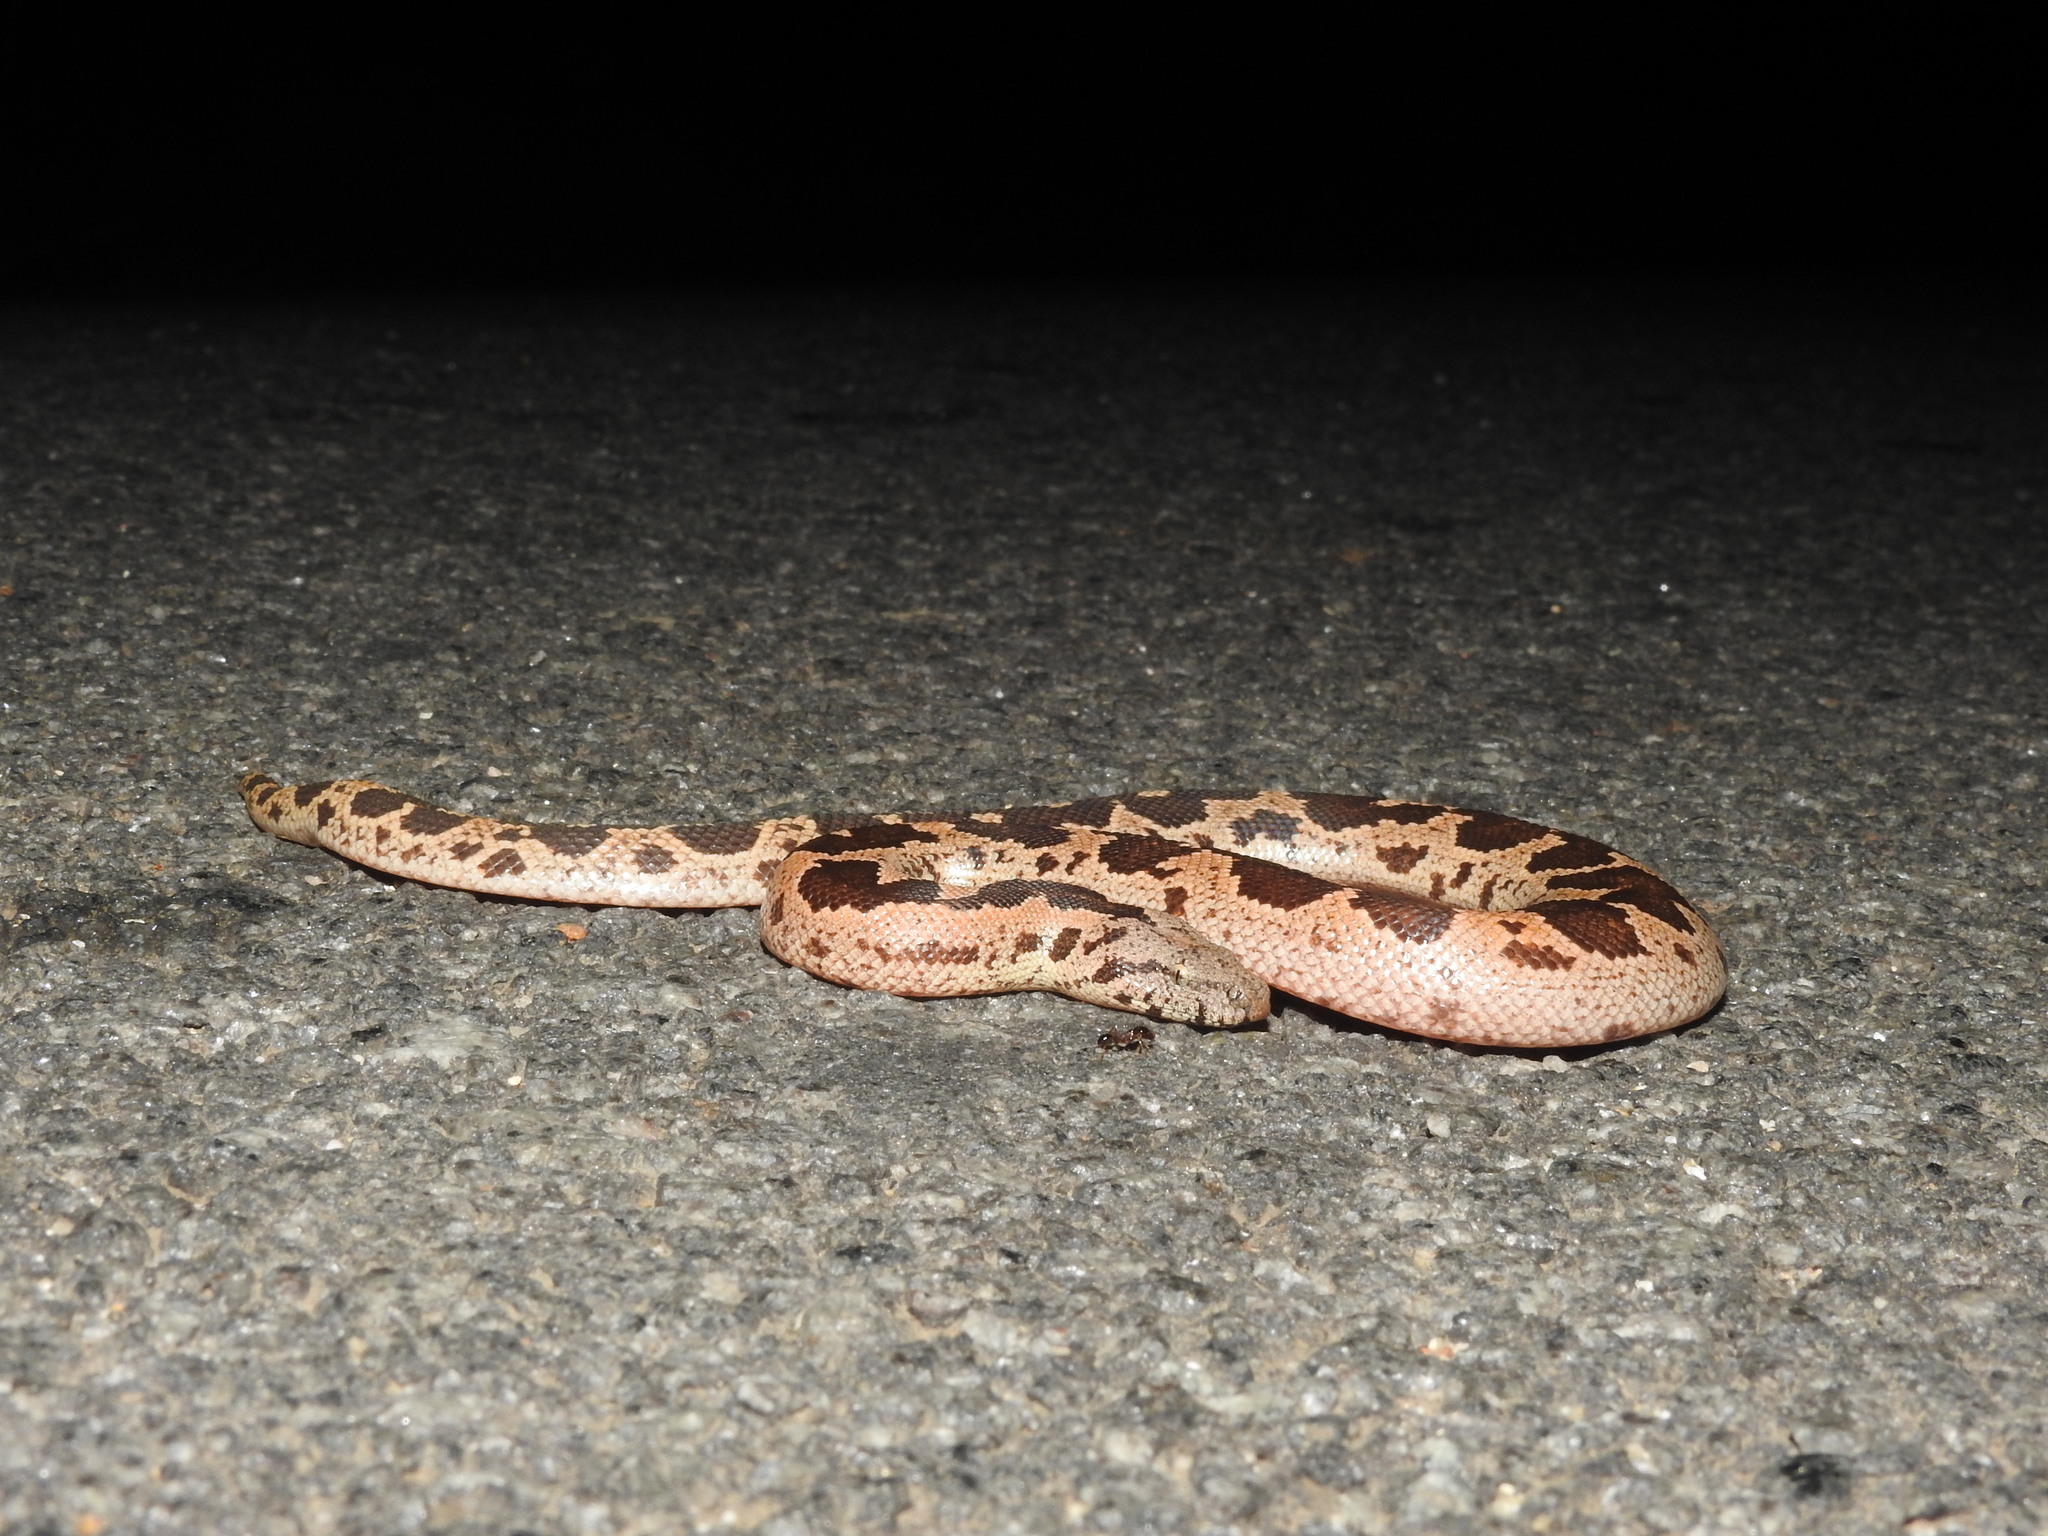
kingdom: Animalia
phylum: Chordata
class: Squamata
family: Boidae
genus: Eryx
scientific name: Eryx conicus
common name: Rough-tailed sand boa
